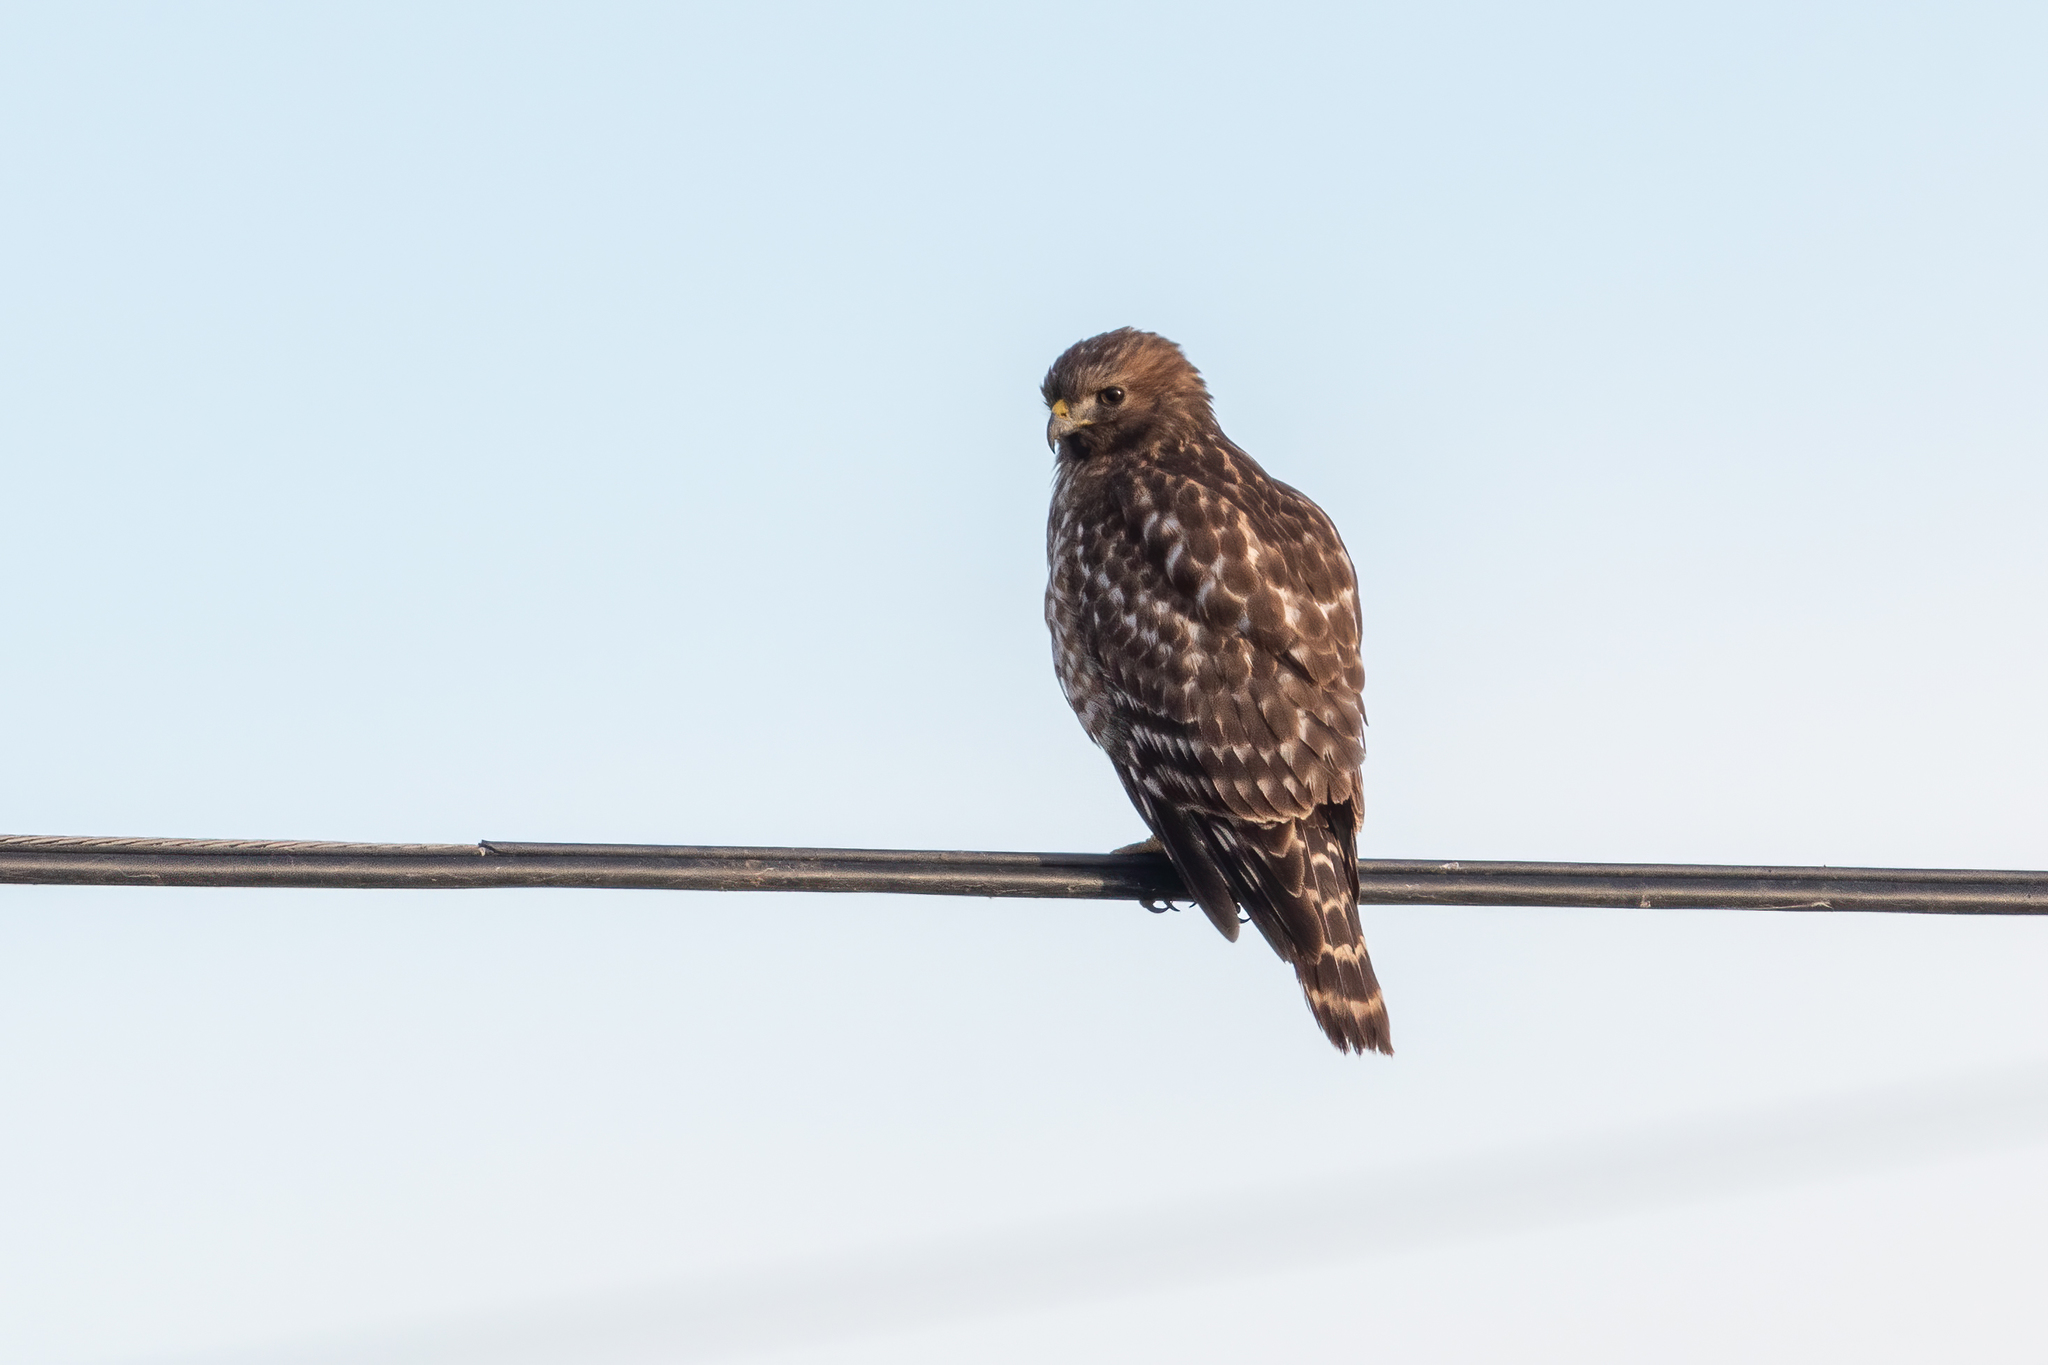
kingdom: Animalia
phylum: Chordata
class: Aves
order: Accipitriformes
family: Accipitridae
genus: Buteo
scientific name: Buteo lineatus
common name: Red-shouldered hawk
